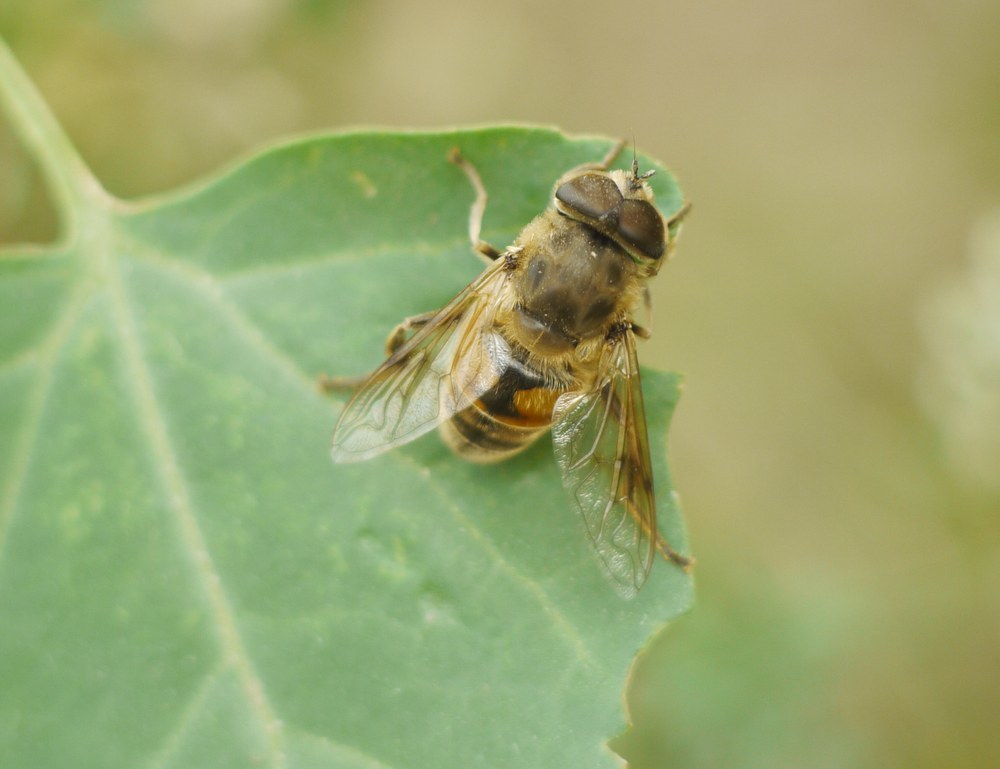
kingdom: Animalia
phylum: Arthropoda
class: Insecta
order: Diptera
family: Syrphidae
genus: Eristalis
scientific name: Eristalis tenax
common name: Drone fly
